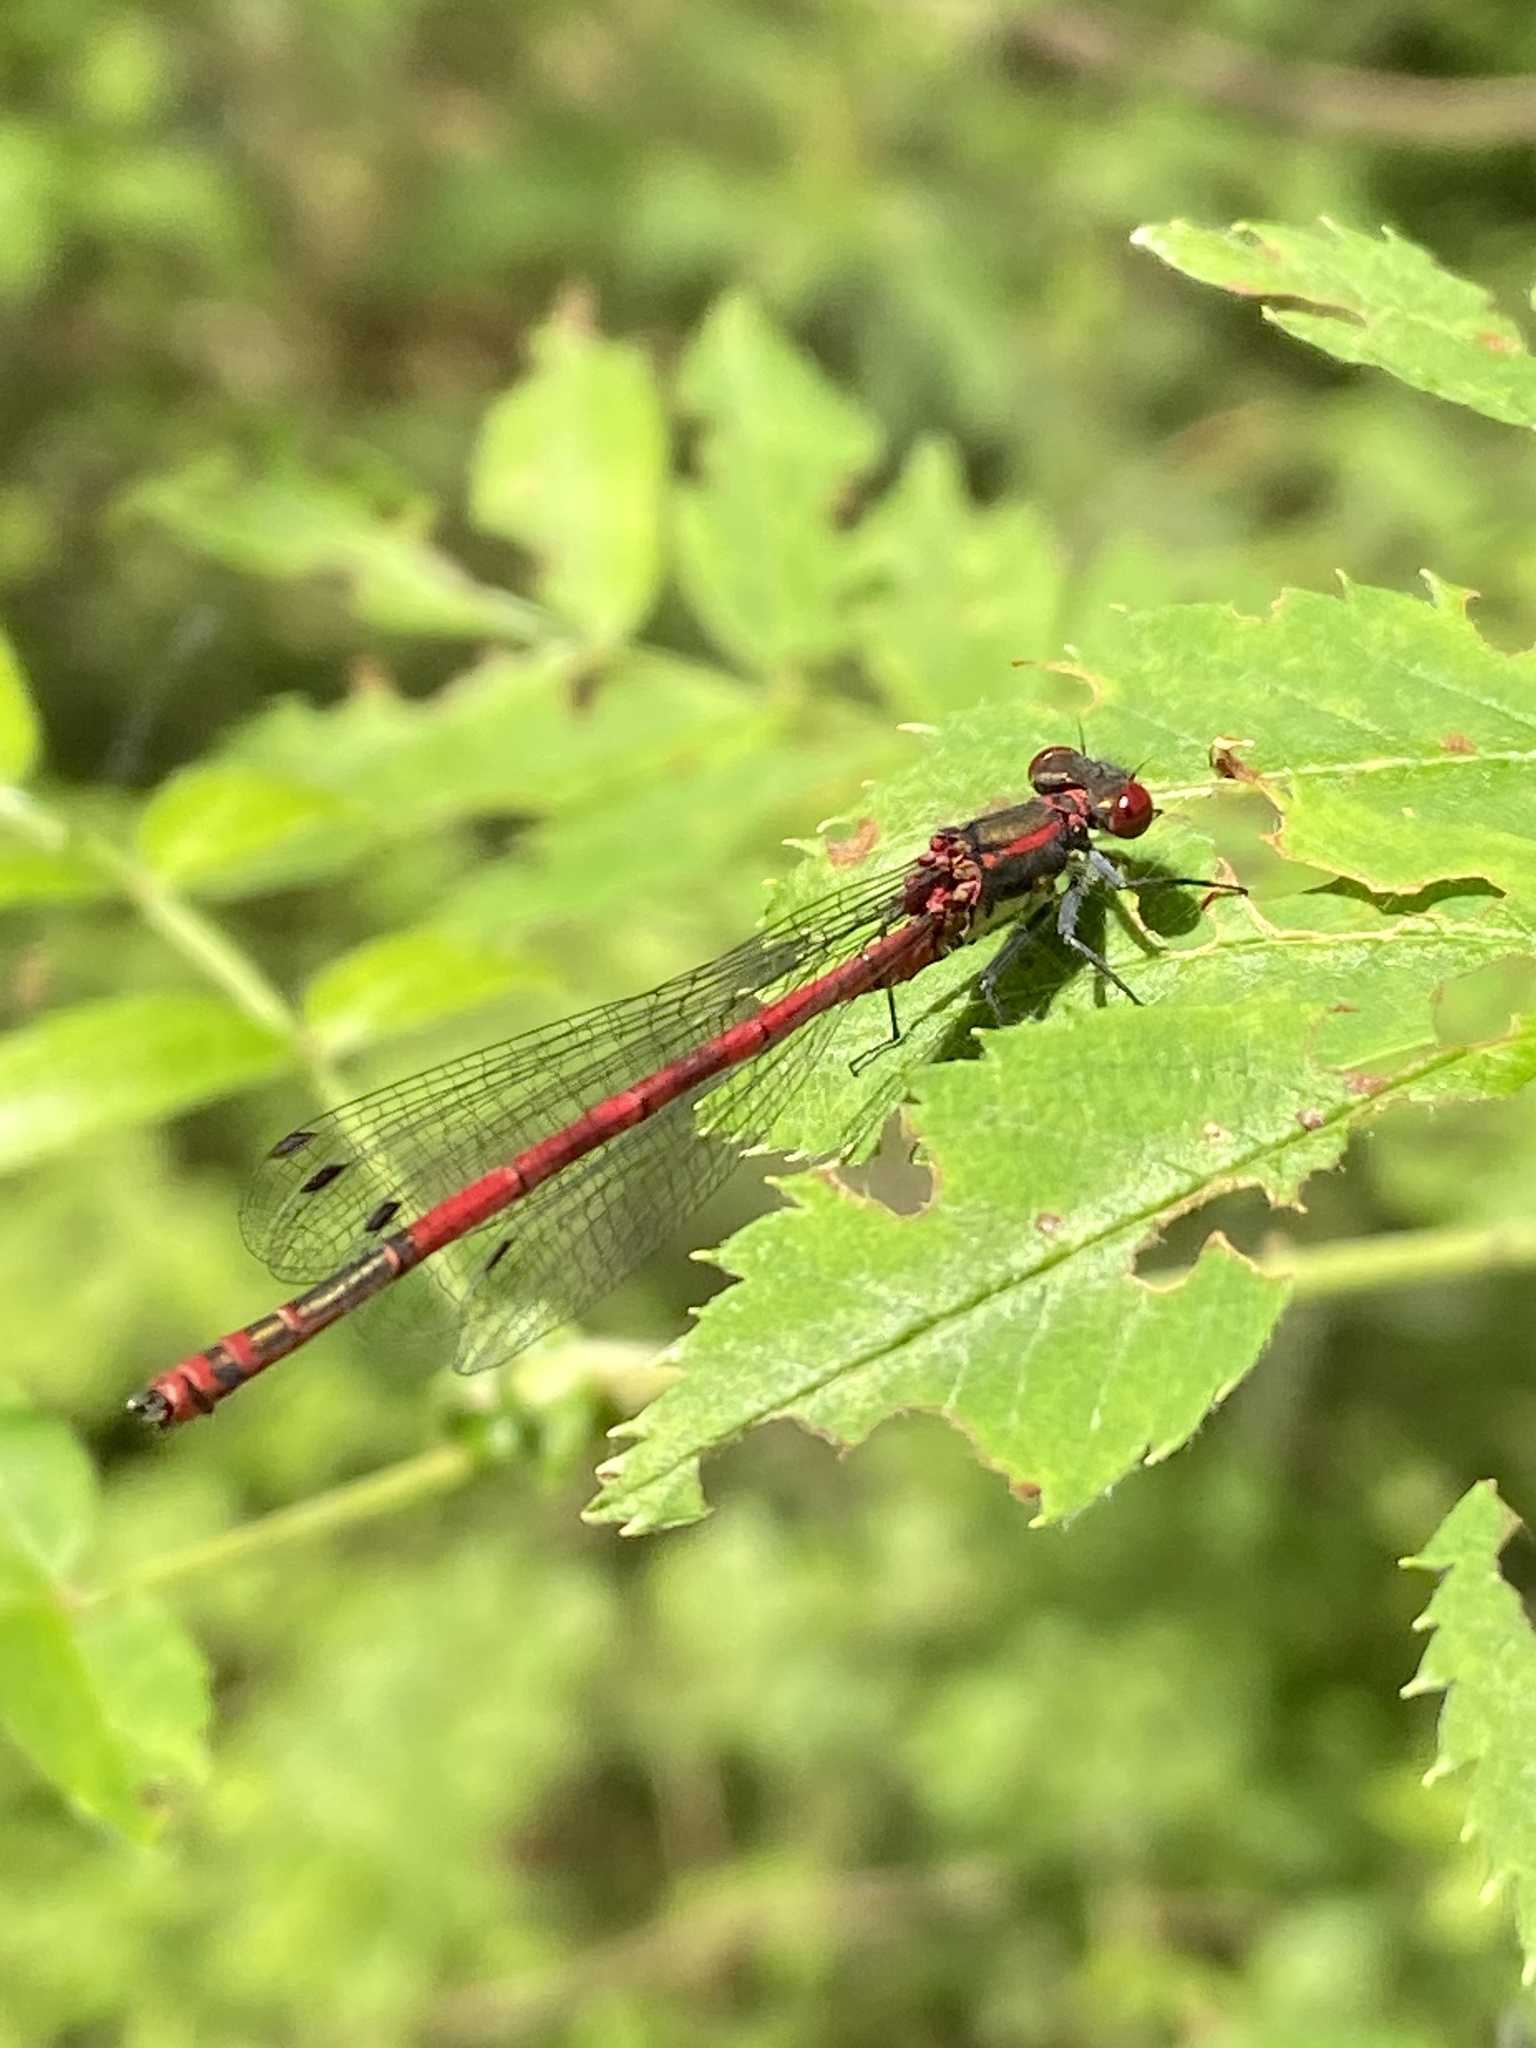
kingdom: Animalia
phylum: Arthropoda
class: Insecta
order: Odonata
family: Coenagrionidae
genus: Pyrrhosoma
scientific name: Pyrrhosoma nymphula
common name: Large red damsel
